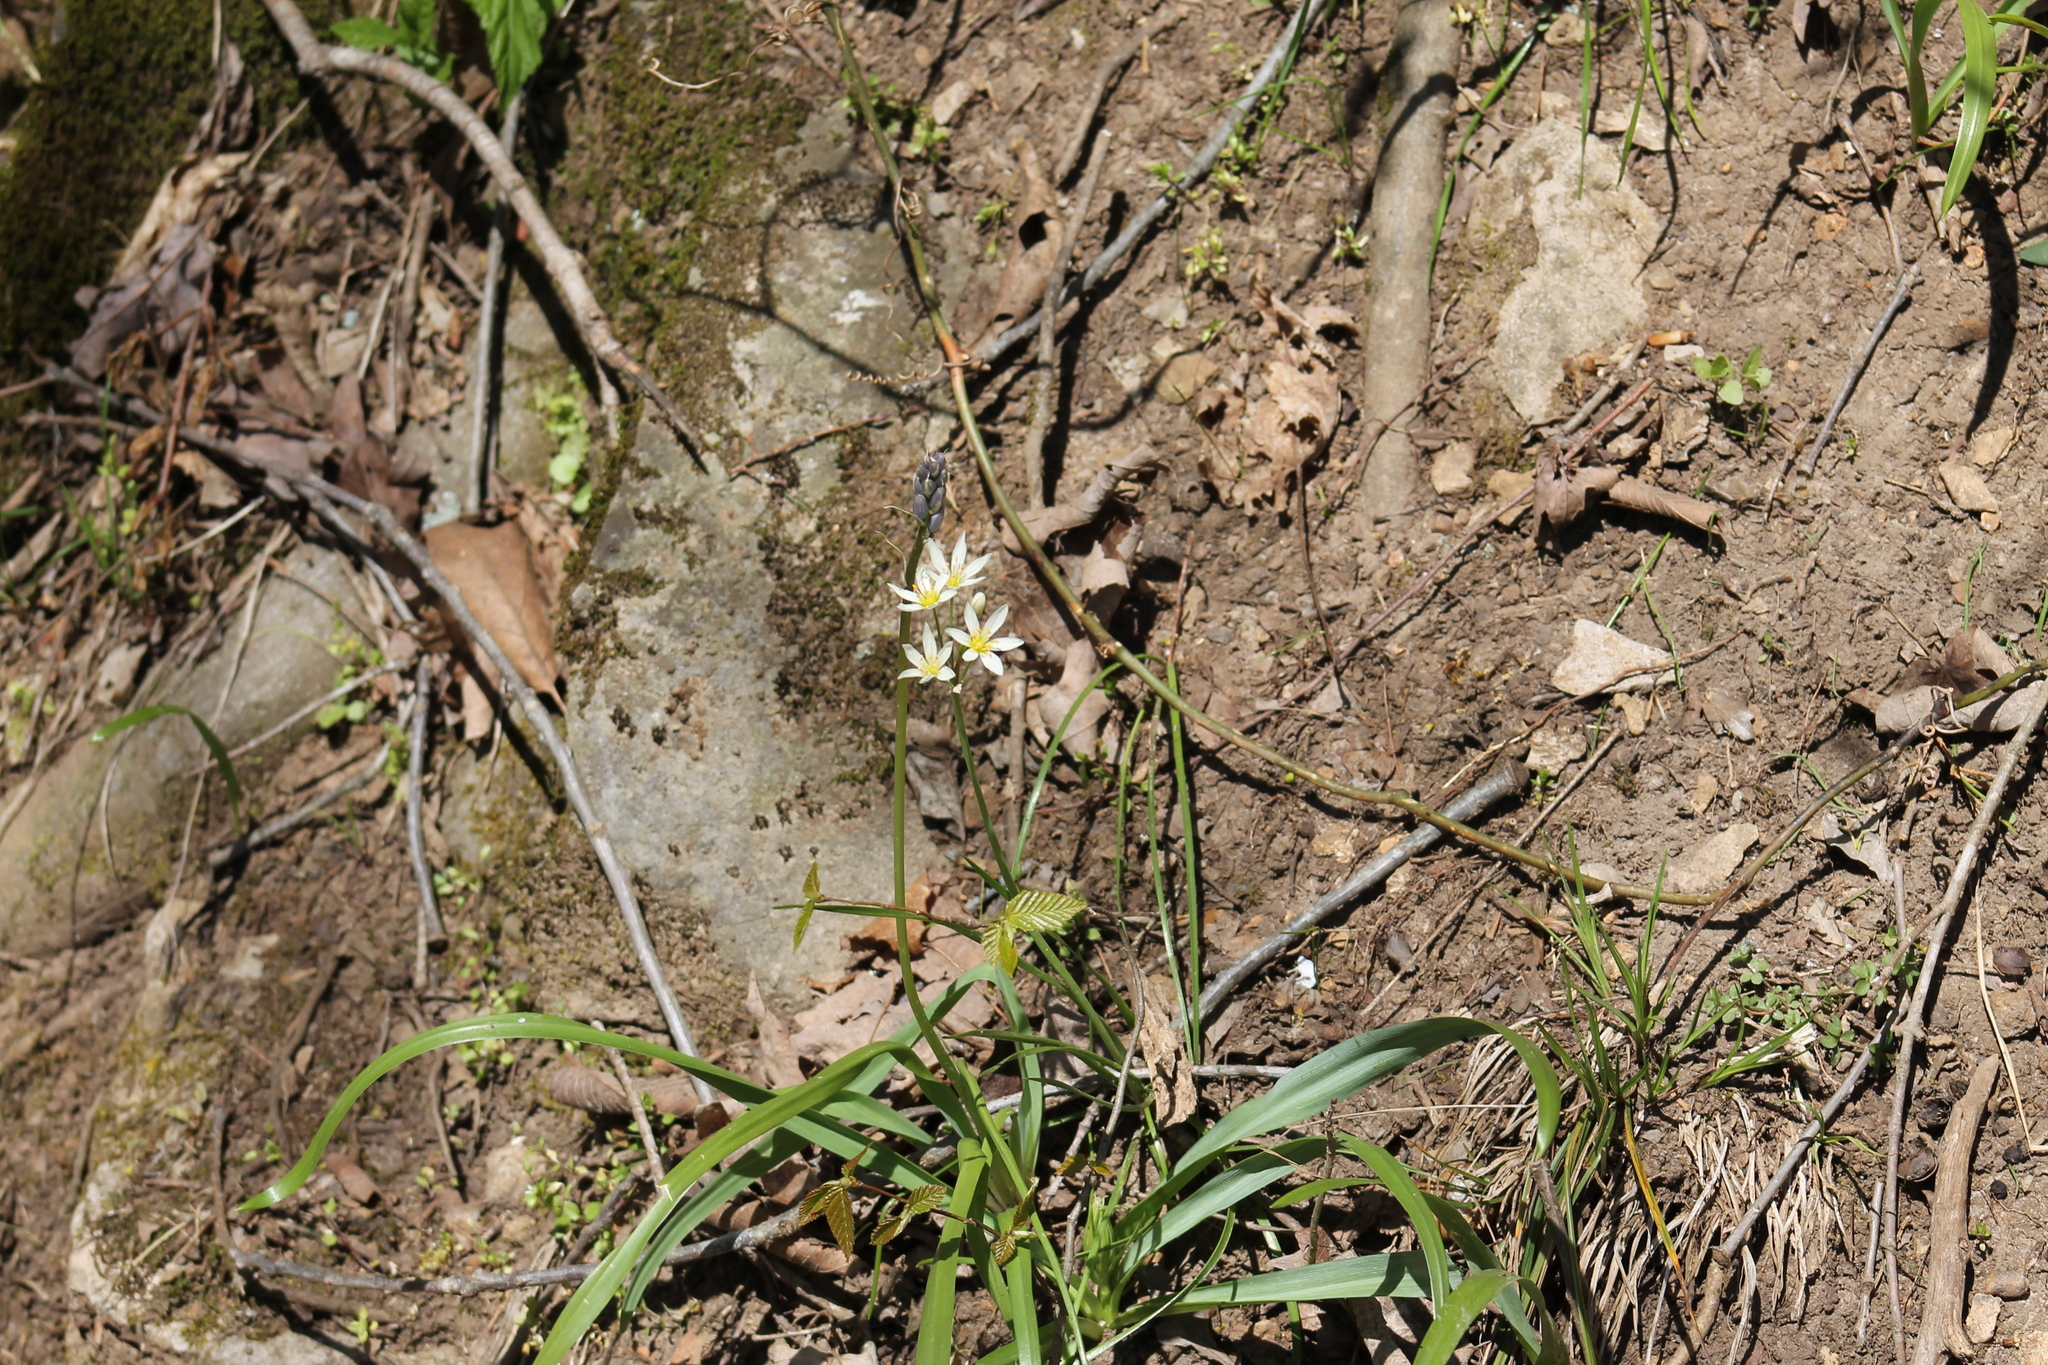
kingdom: Plantae
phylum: Tracheophyta
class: Liliopsida
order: Asparagales
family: Amaryllidaceae
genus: Nothoscordum
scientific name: Nothoscordum bivalve
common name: Crow-poison
